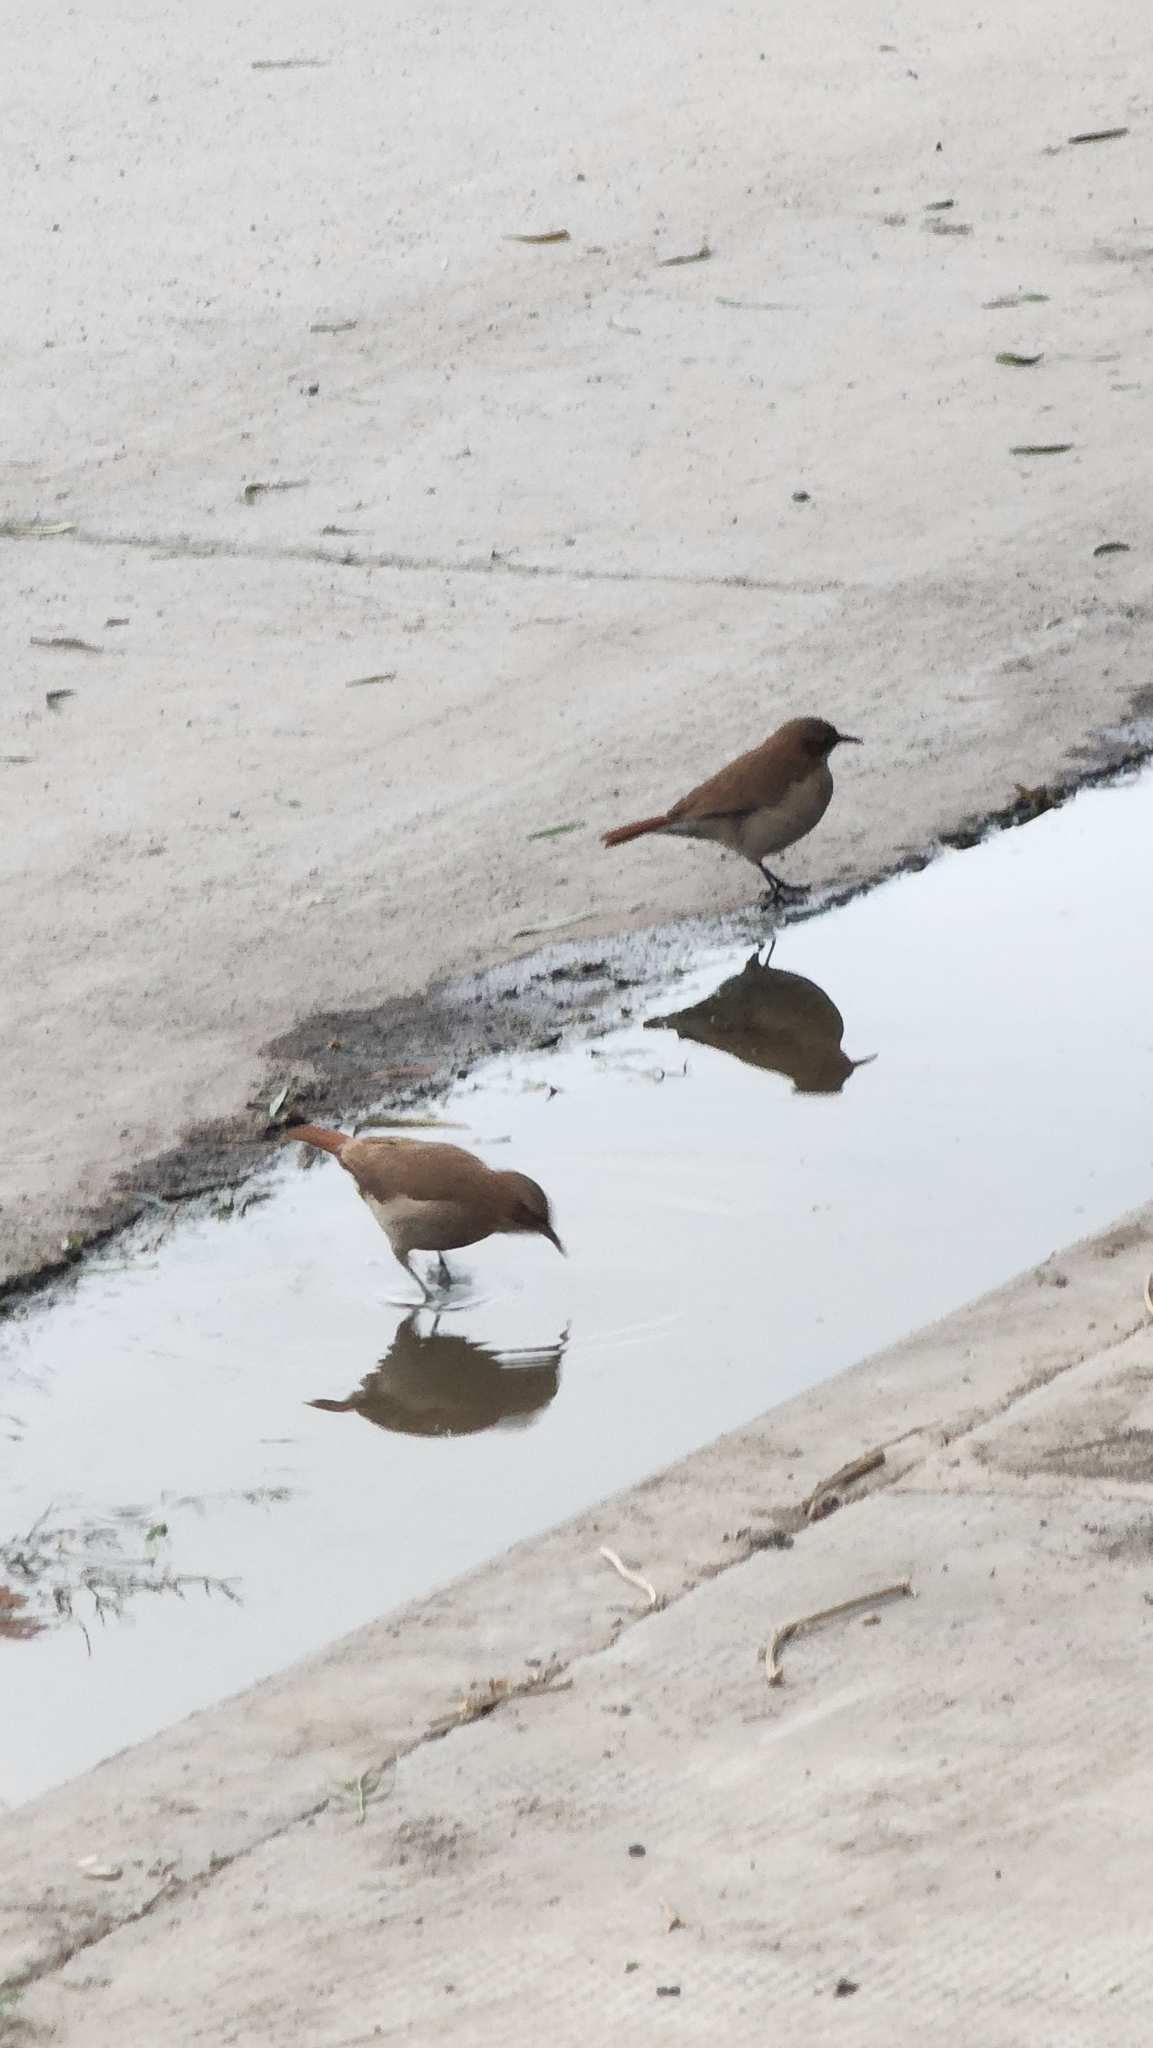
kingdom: Animalia
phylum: Chordata
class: Aves
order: Passeriformes
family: Furnariidae
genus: Furnarius
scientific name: Furnarius rufus
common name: Rufous hornero
